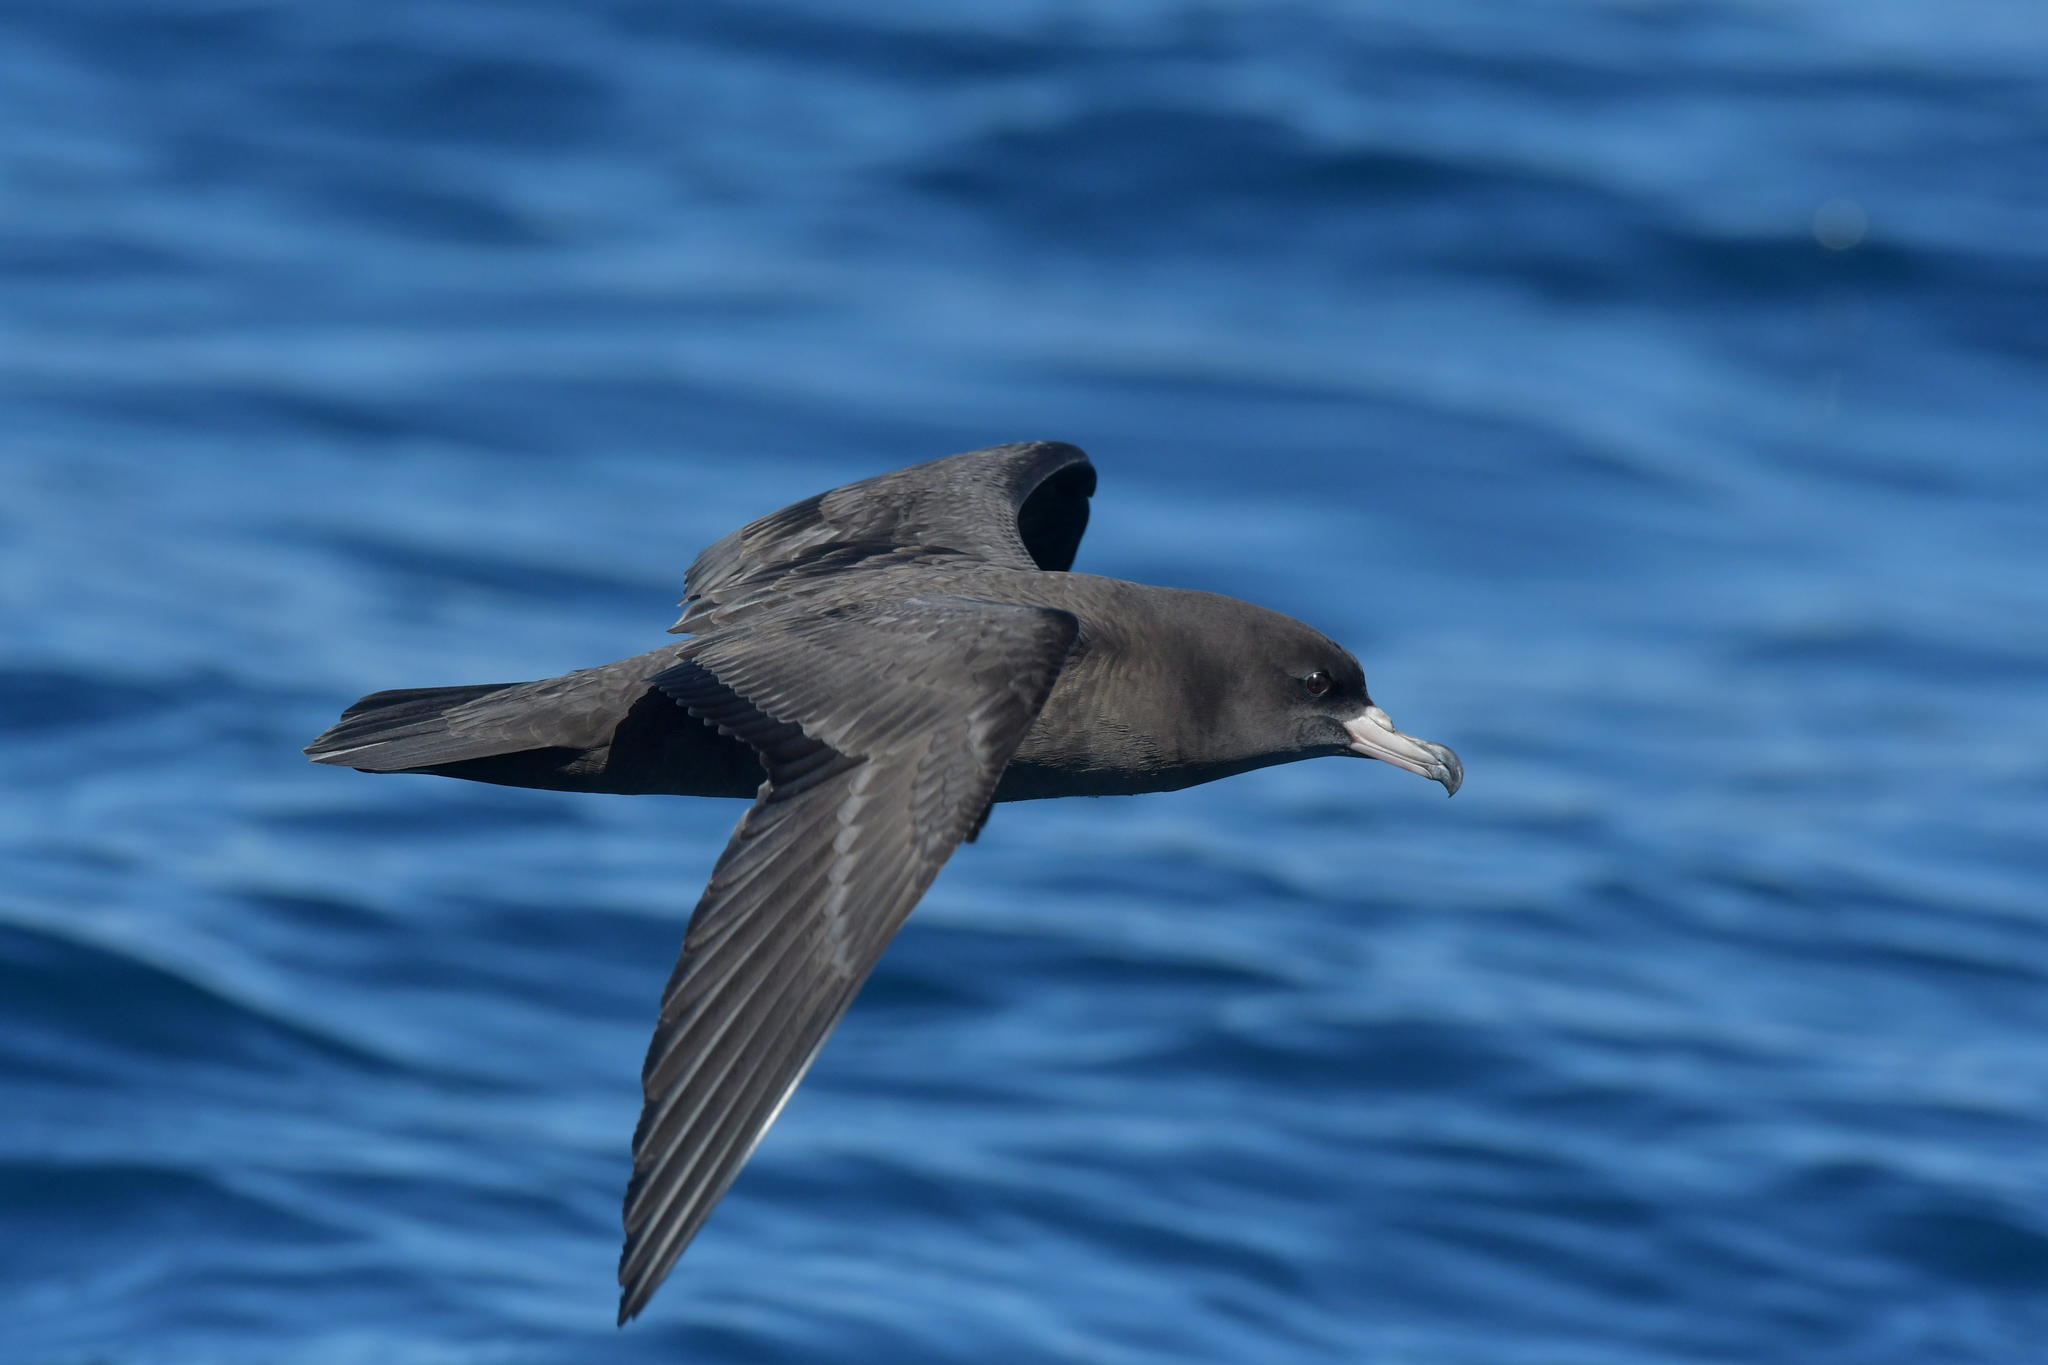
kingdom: Animalia
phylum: Chordata
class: Aves
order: Procellariiformes
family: Procellariidae
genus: Puffinus
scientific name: Puffinus carneipes
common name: Flesh-footed shearwater
